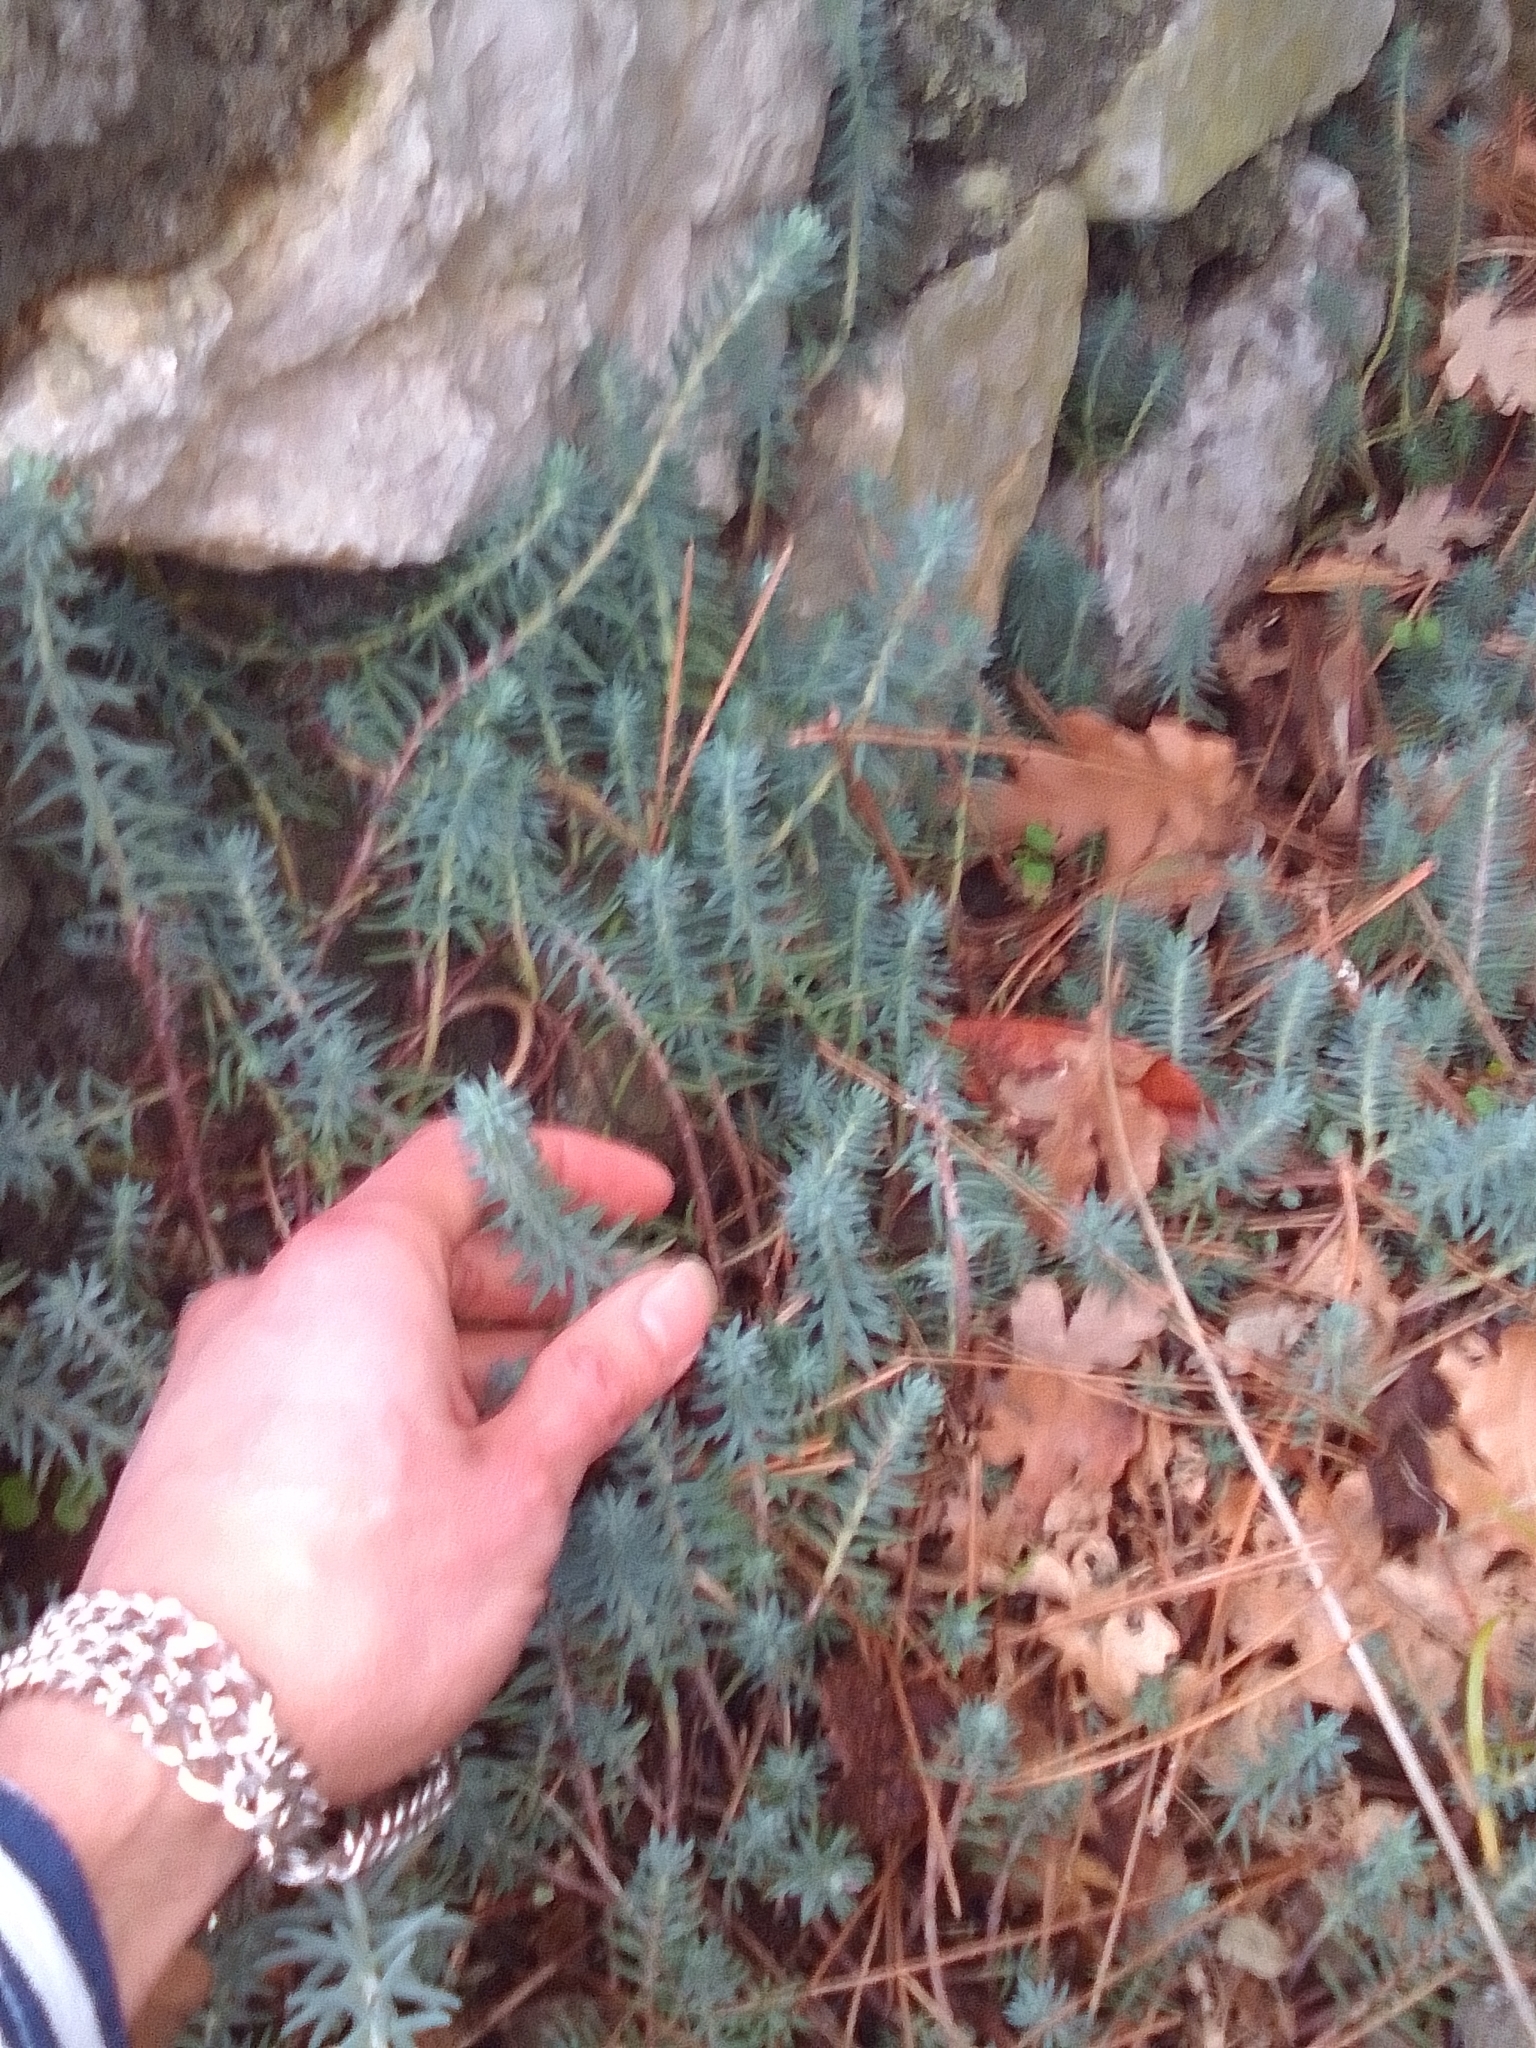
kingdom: Plantae
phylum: Tracheophyta
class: Magnoliopsida
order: Saxifragales
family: Crassulaceae
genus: Petrosedum
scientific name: Petrosedum rupestre
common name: Jenny's stonecrop
